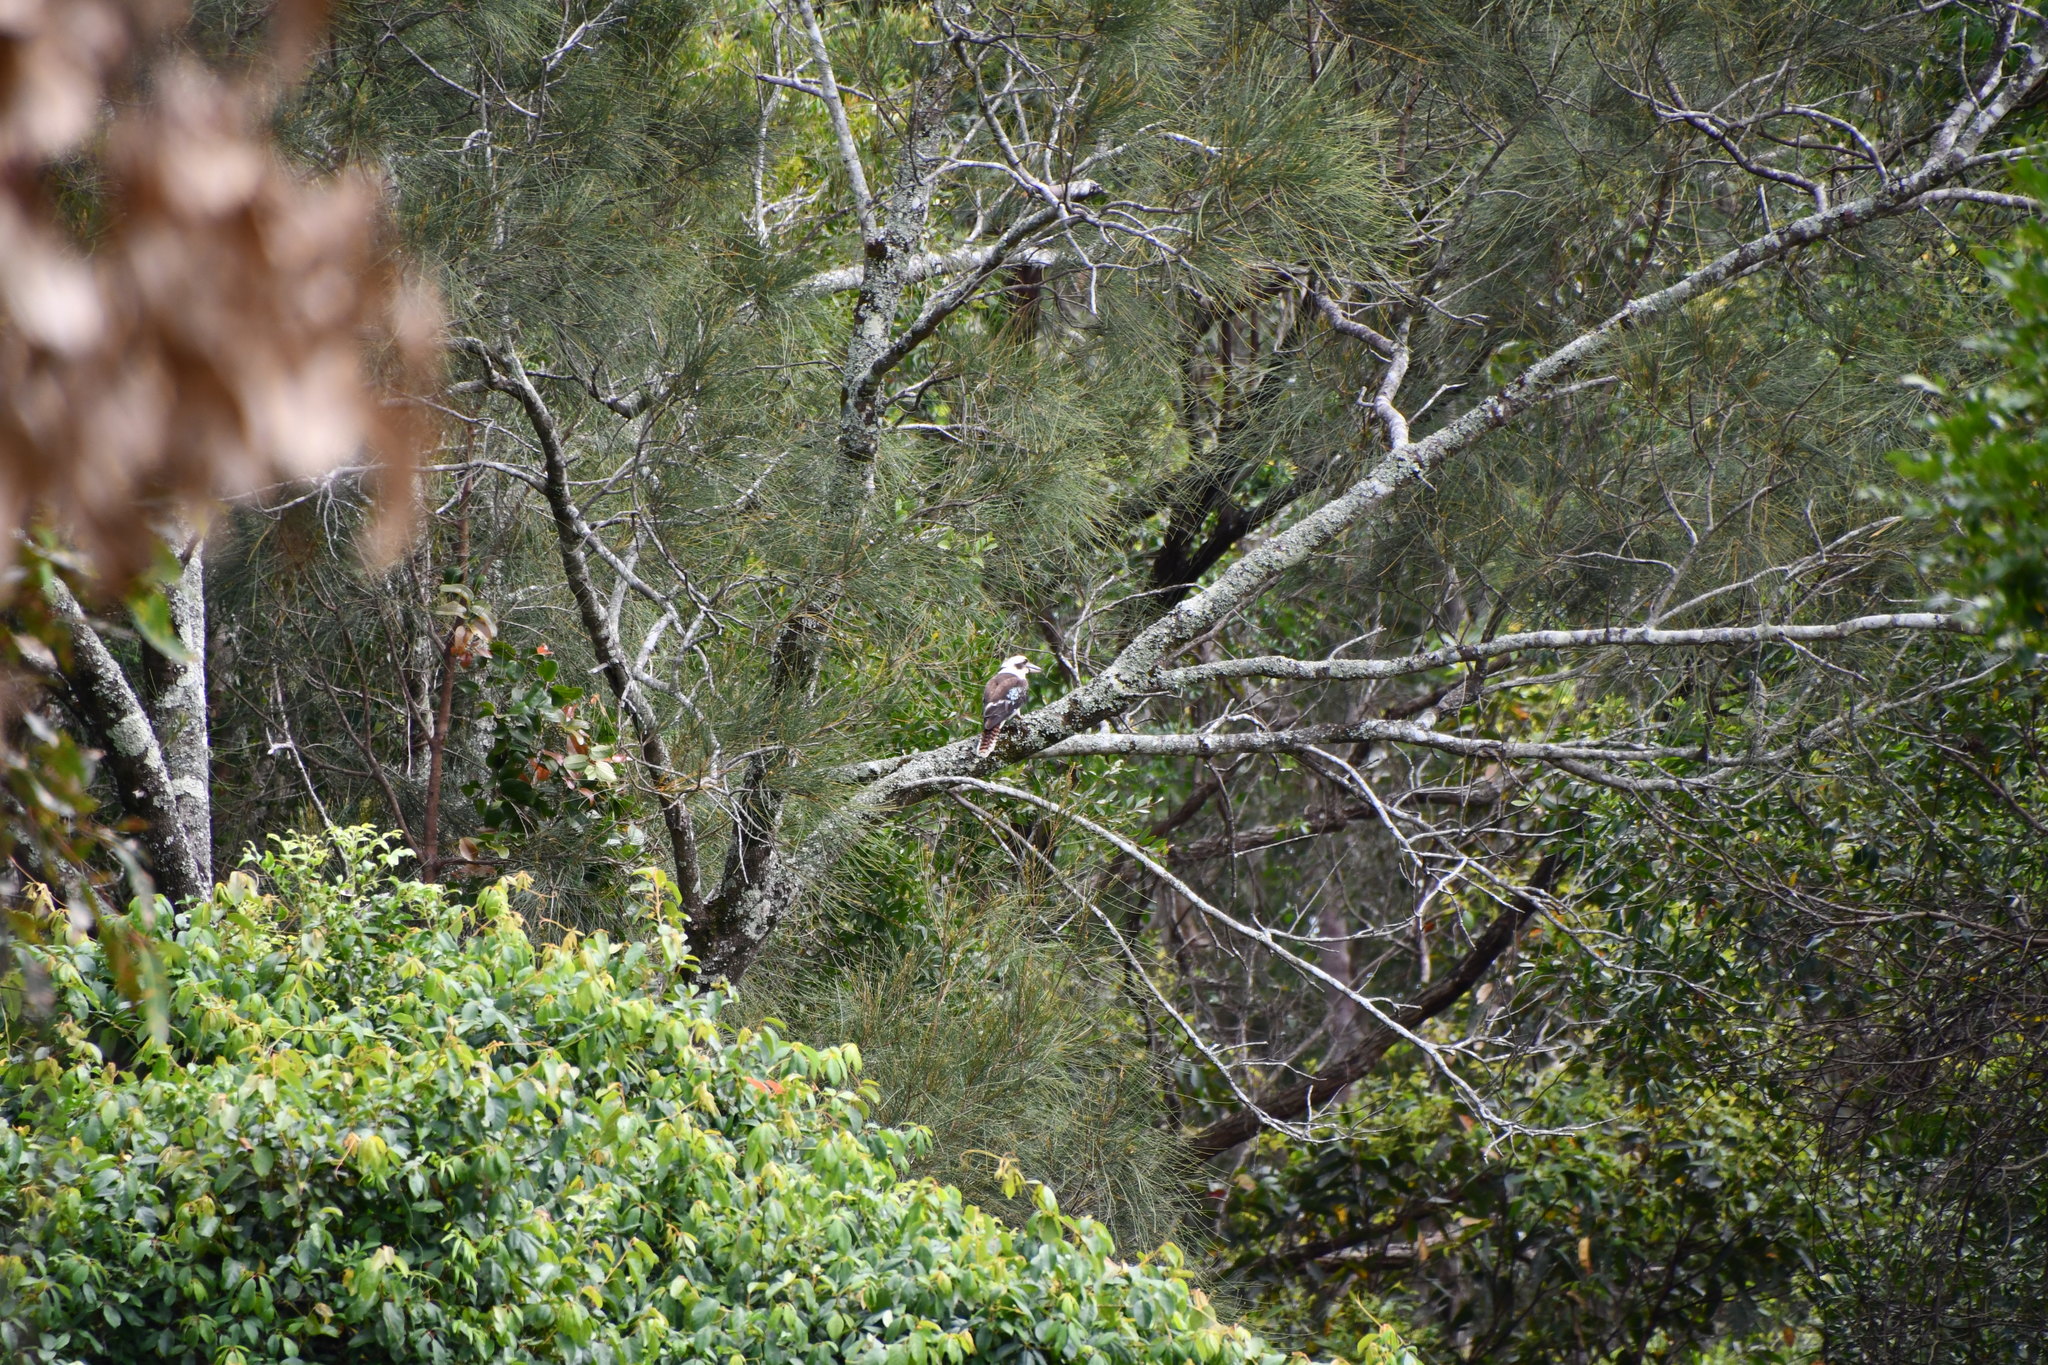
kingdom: Animalia
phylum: Chordata
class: Aves
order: Coraciiformes
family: Alcedinidae
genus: Dacelo
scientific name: Dacelo novaeguineae
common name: Laughing kookaburra
